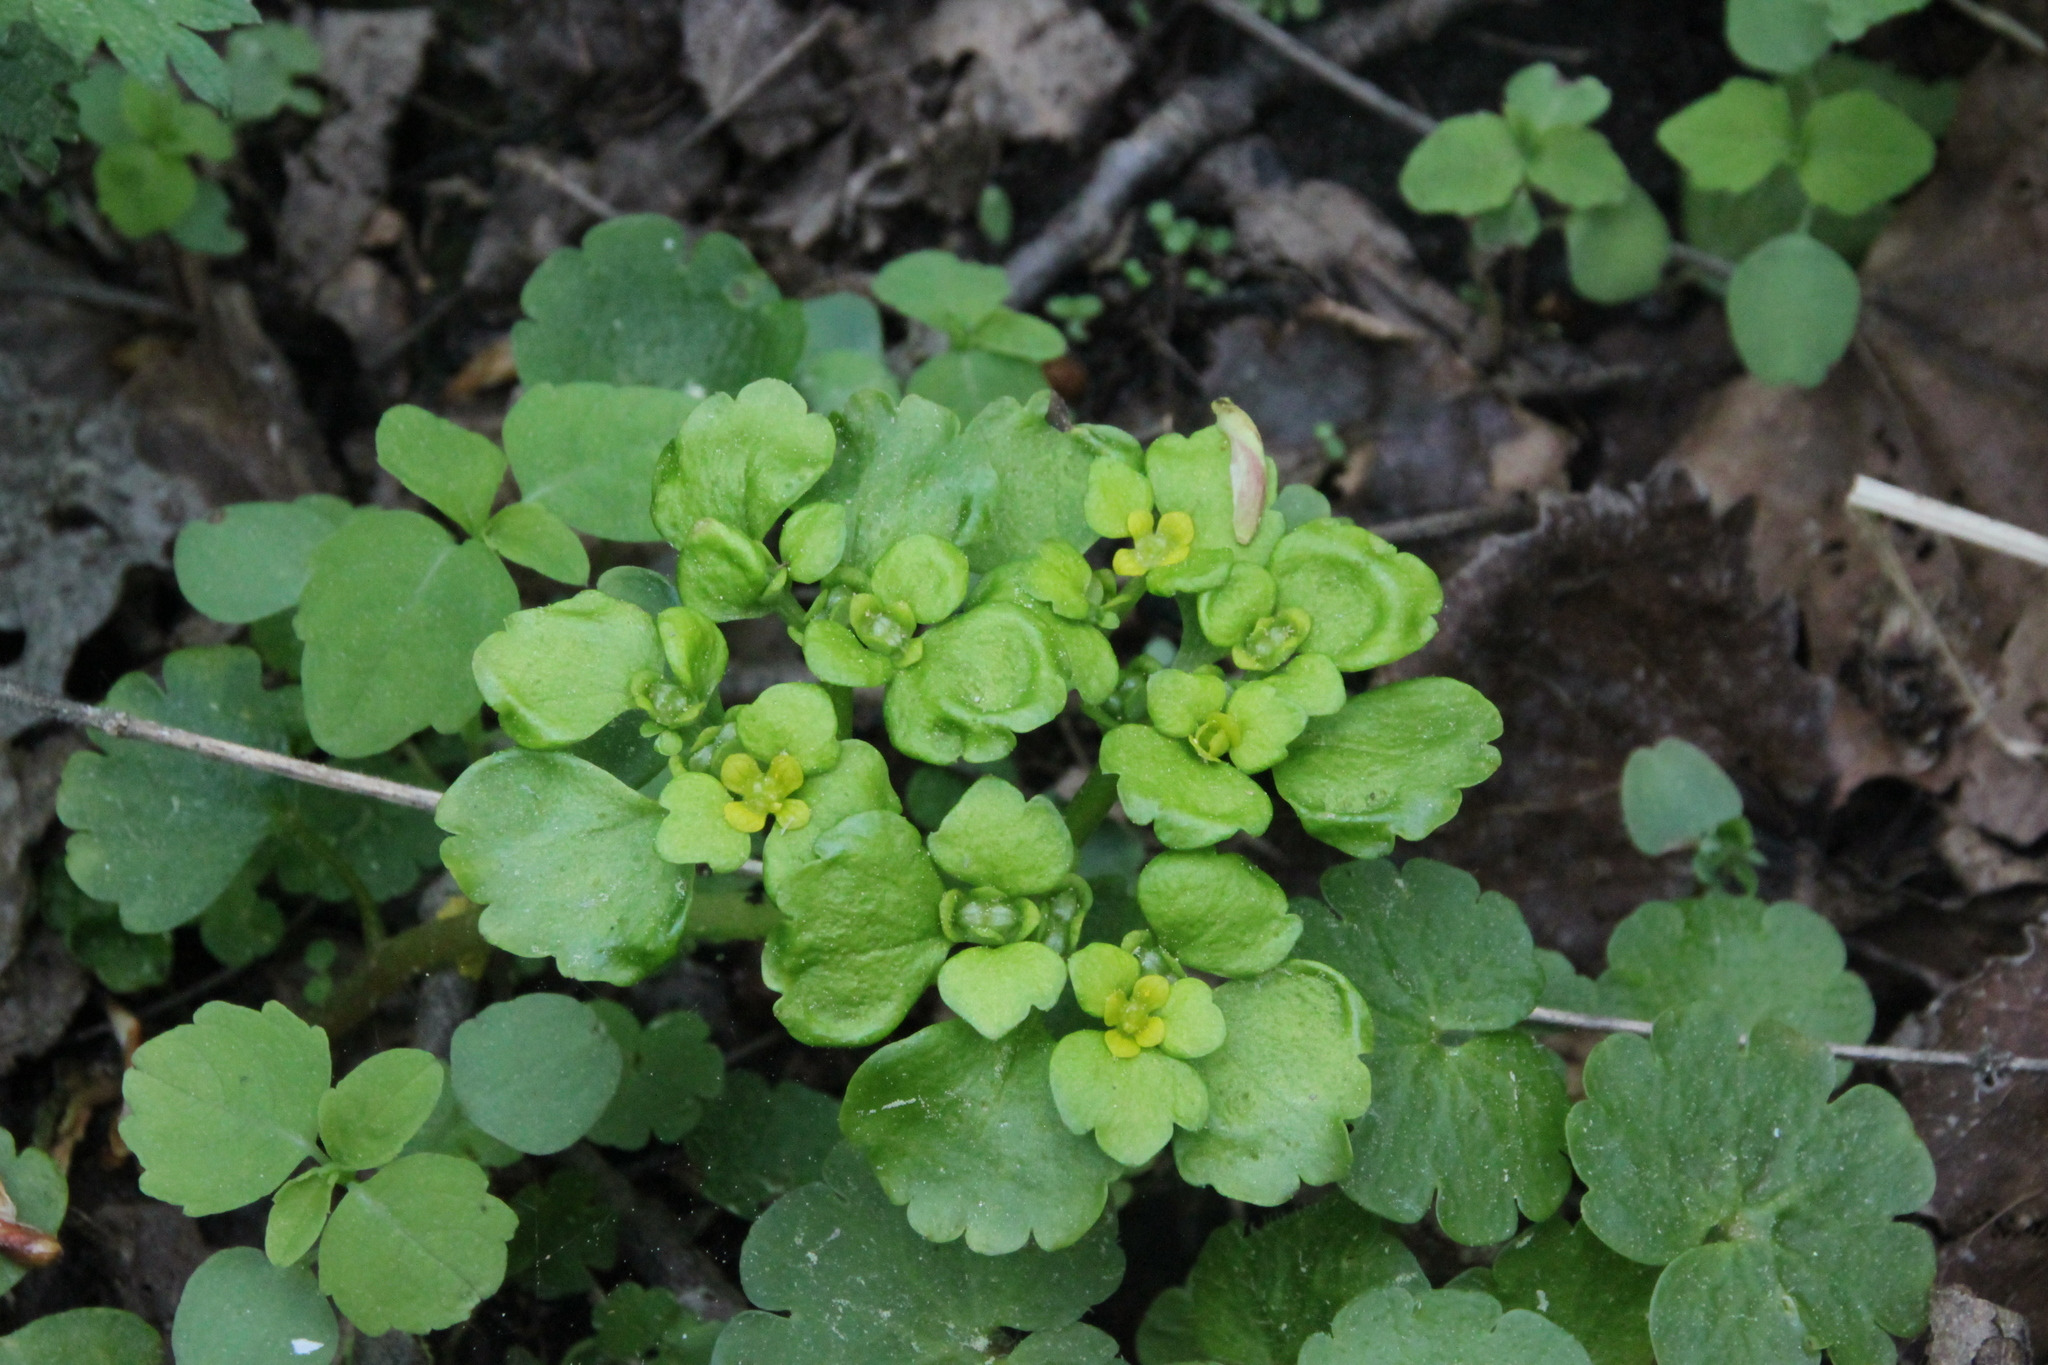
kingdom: Plantae
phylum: Tracheophyta
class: Magnoliopsida
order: Saxifragales
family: Saxifragaceae
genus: Chrysosplenium
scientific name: Chrysosplenium alternifolium
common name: Alternate-leaved golden-saxifrage
